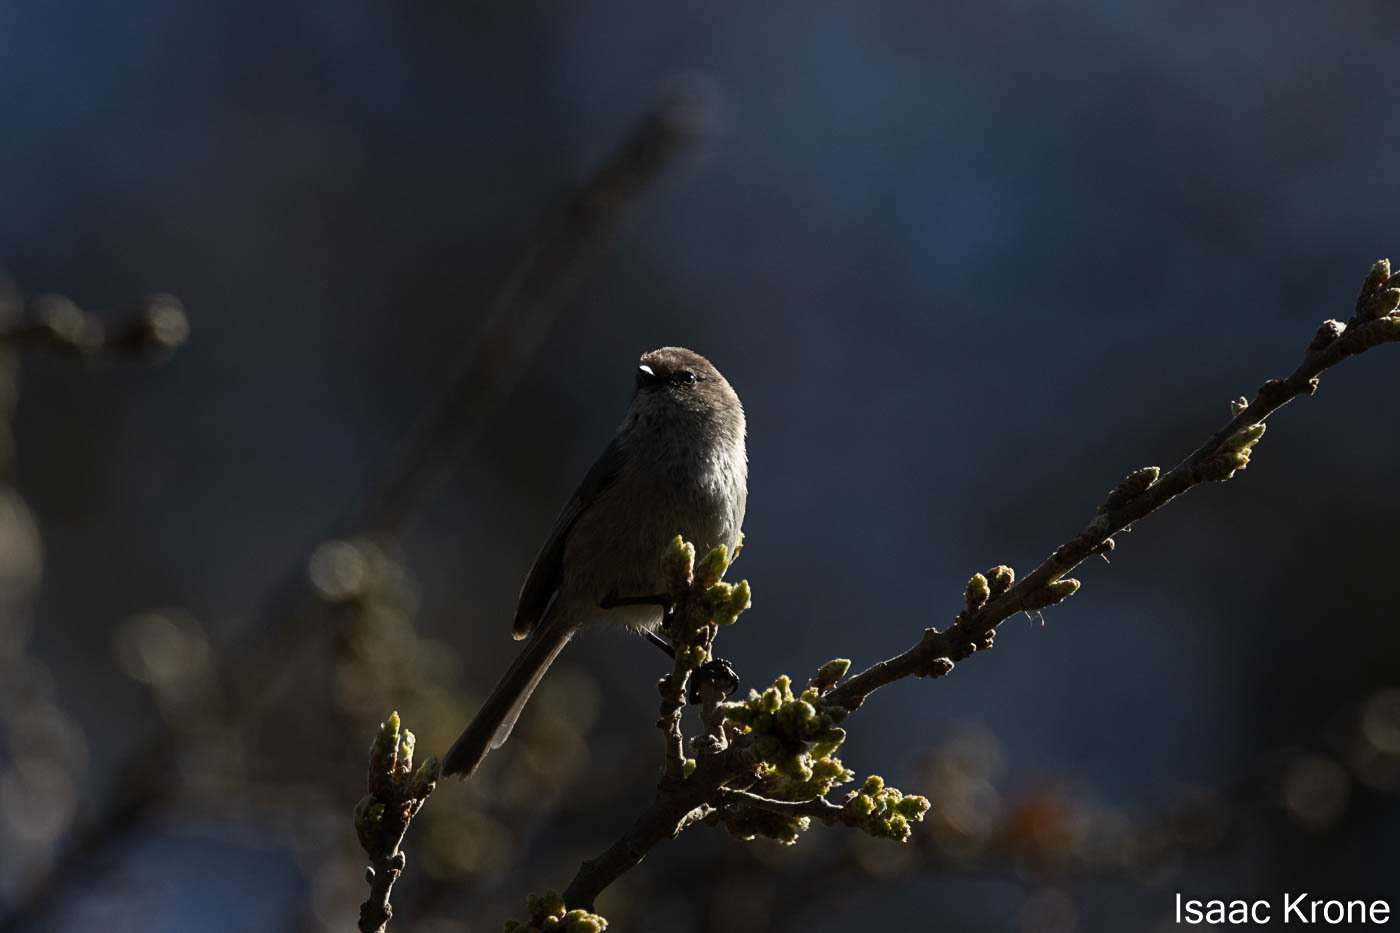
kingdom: Animalia
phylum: Chordata
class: Aves
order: Passeriformes
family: Aegithalidae
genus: Psaltriparus
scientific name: Psaltriparus minimus
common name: American bushtit
